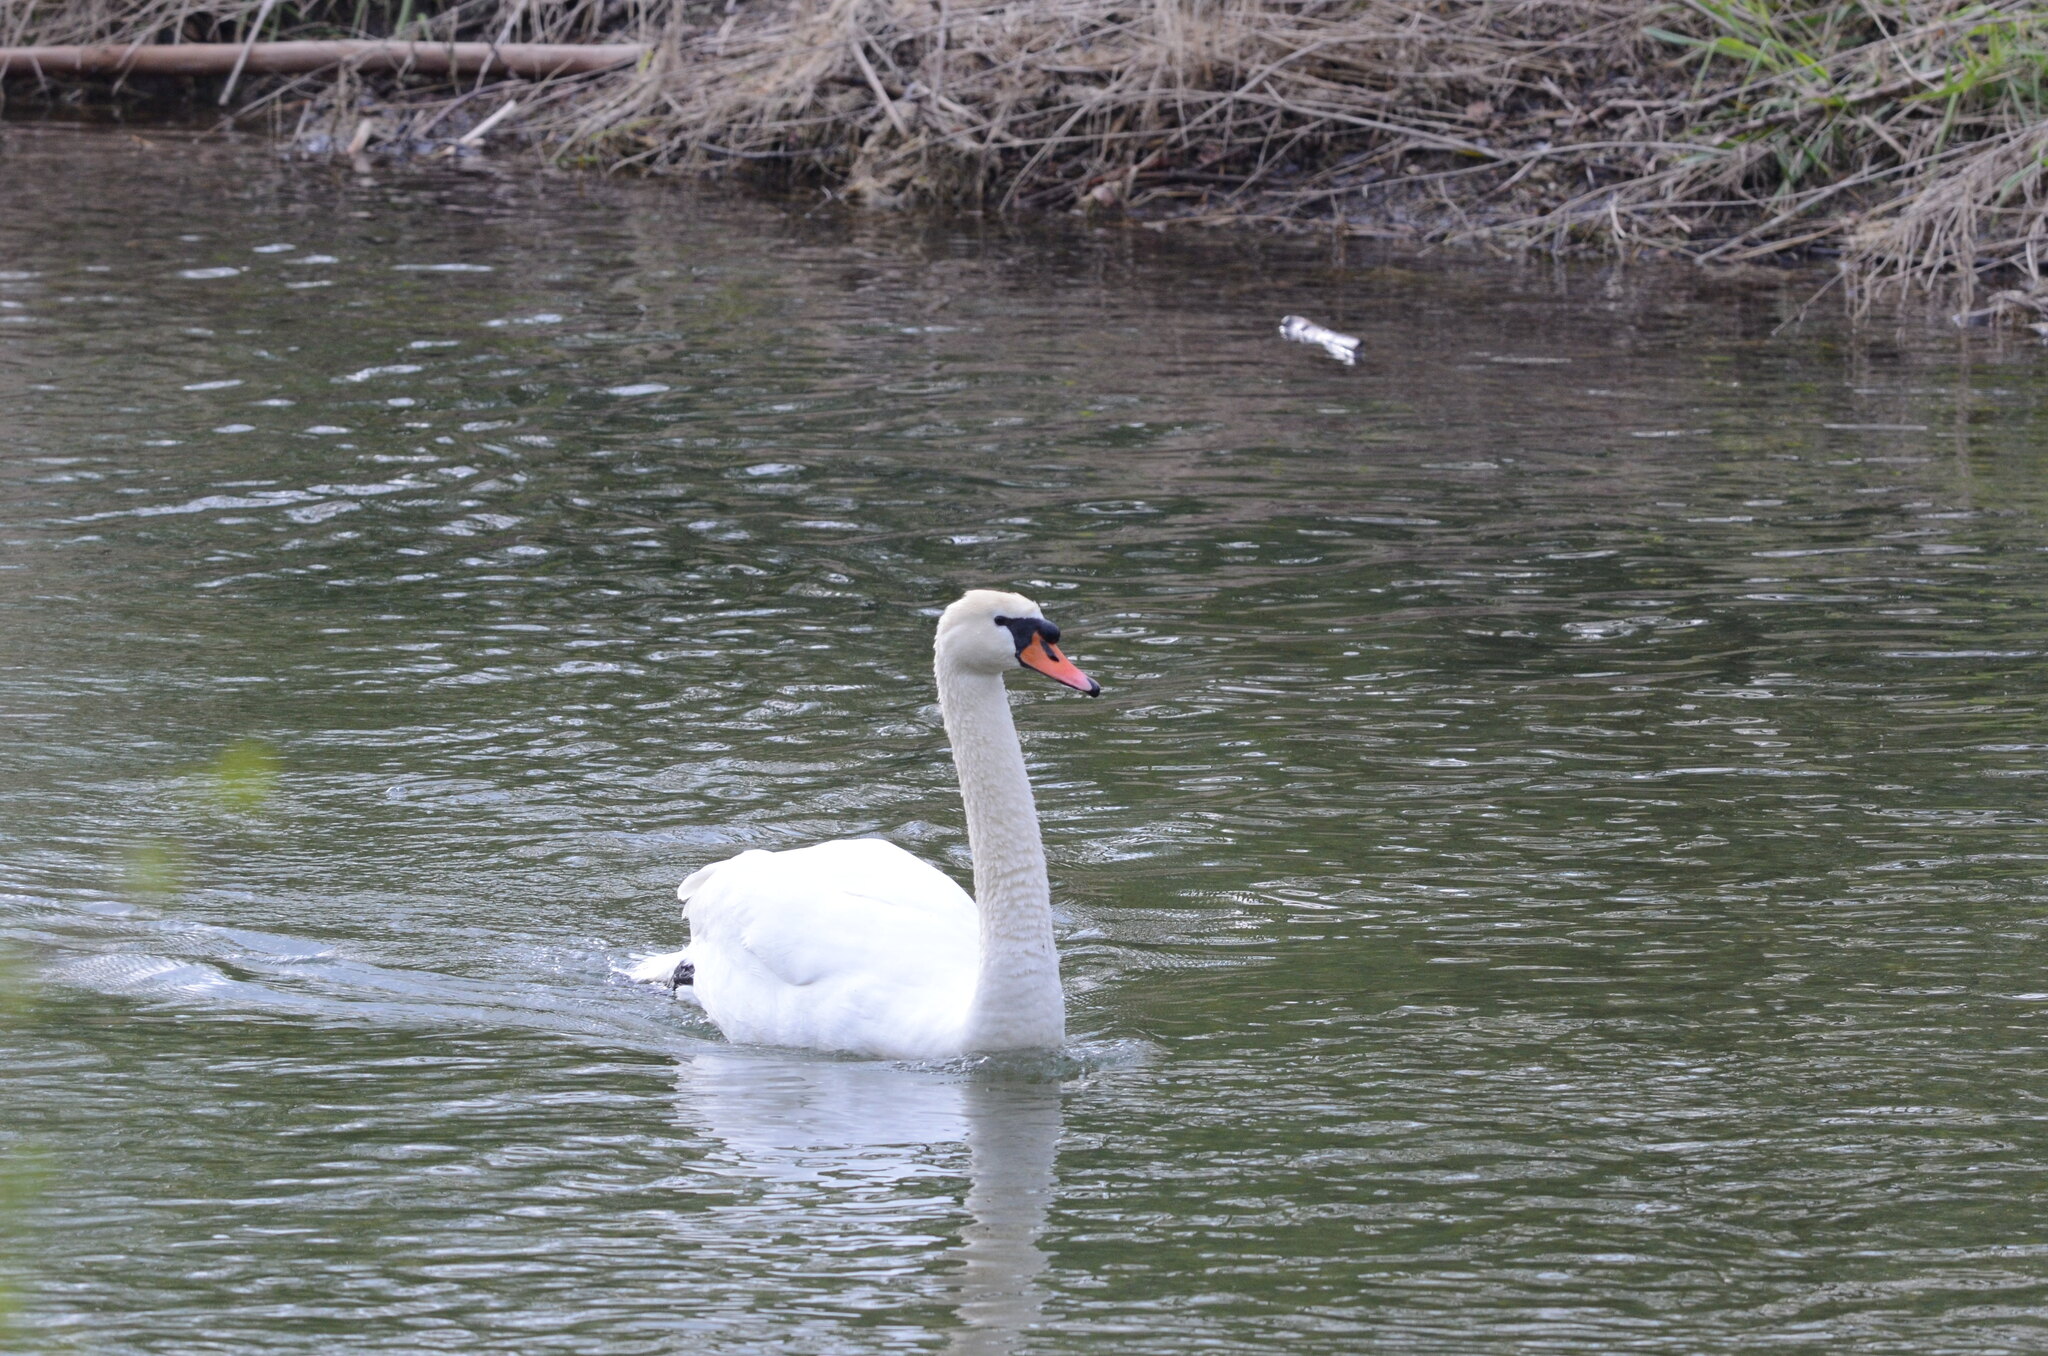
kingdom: Animalia
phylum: Chordata
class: Aves
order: Anseriformes
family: Anatidae
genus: Cygnus
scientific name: Cygnus olor
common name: Mute swan
